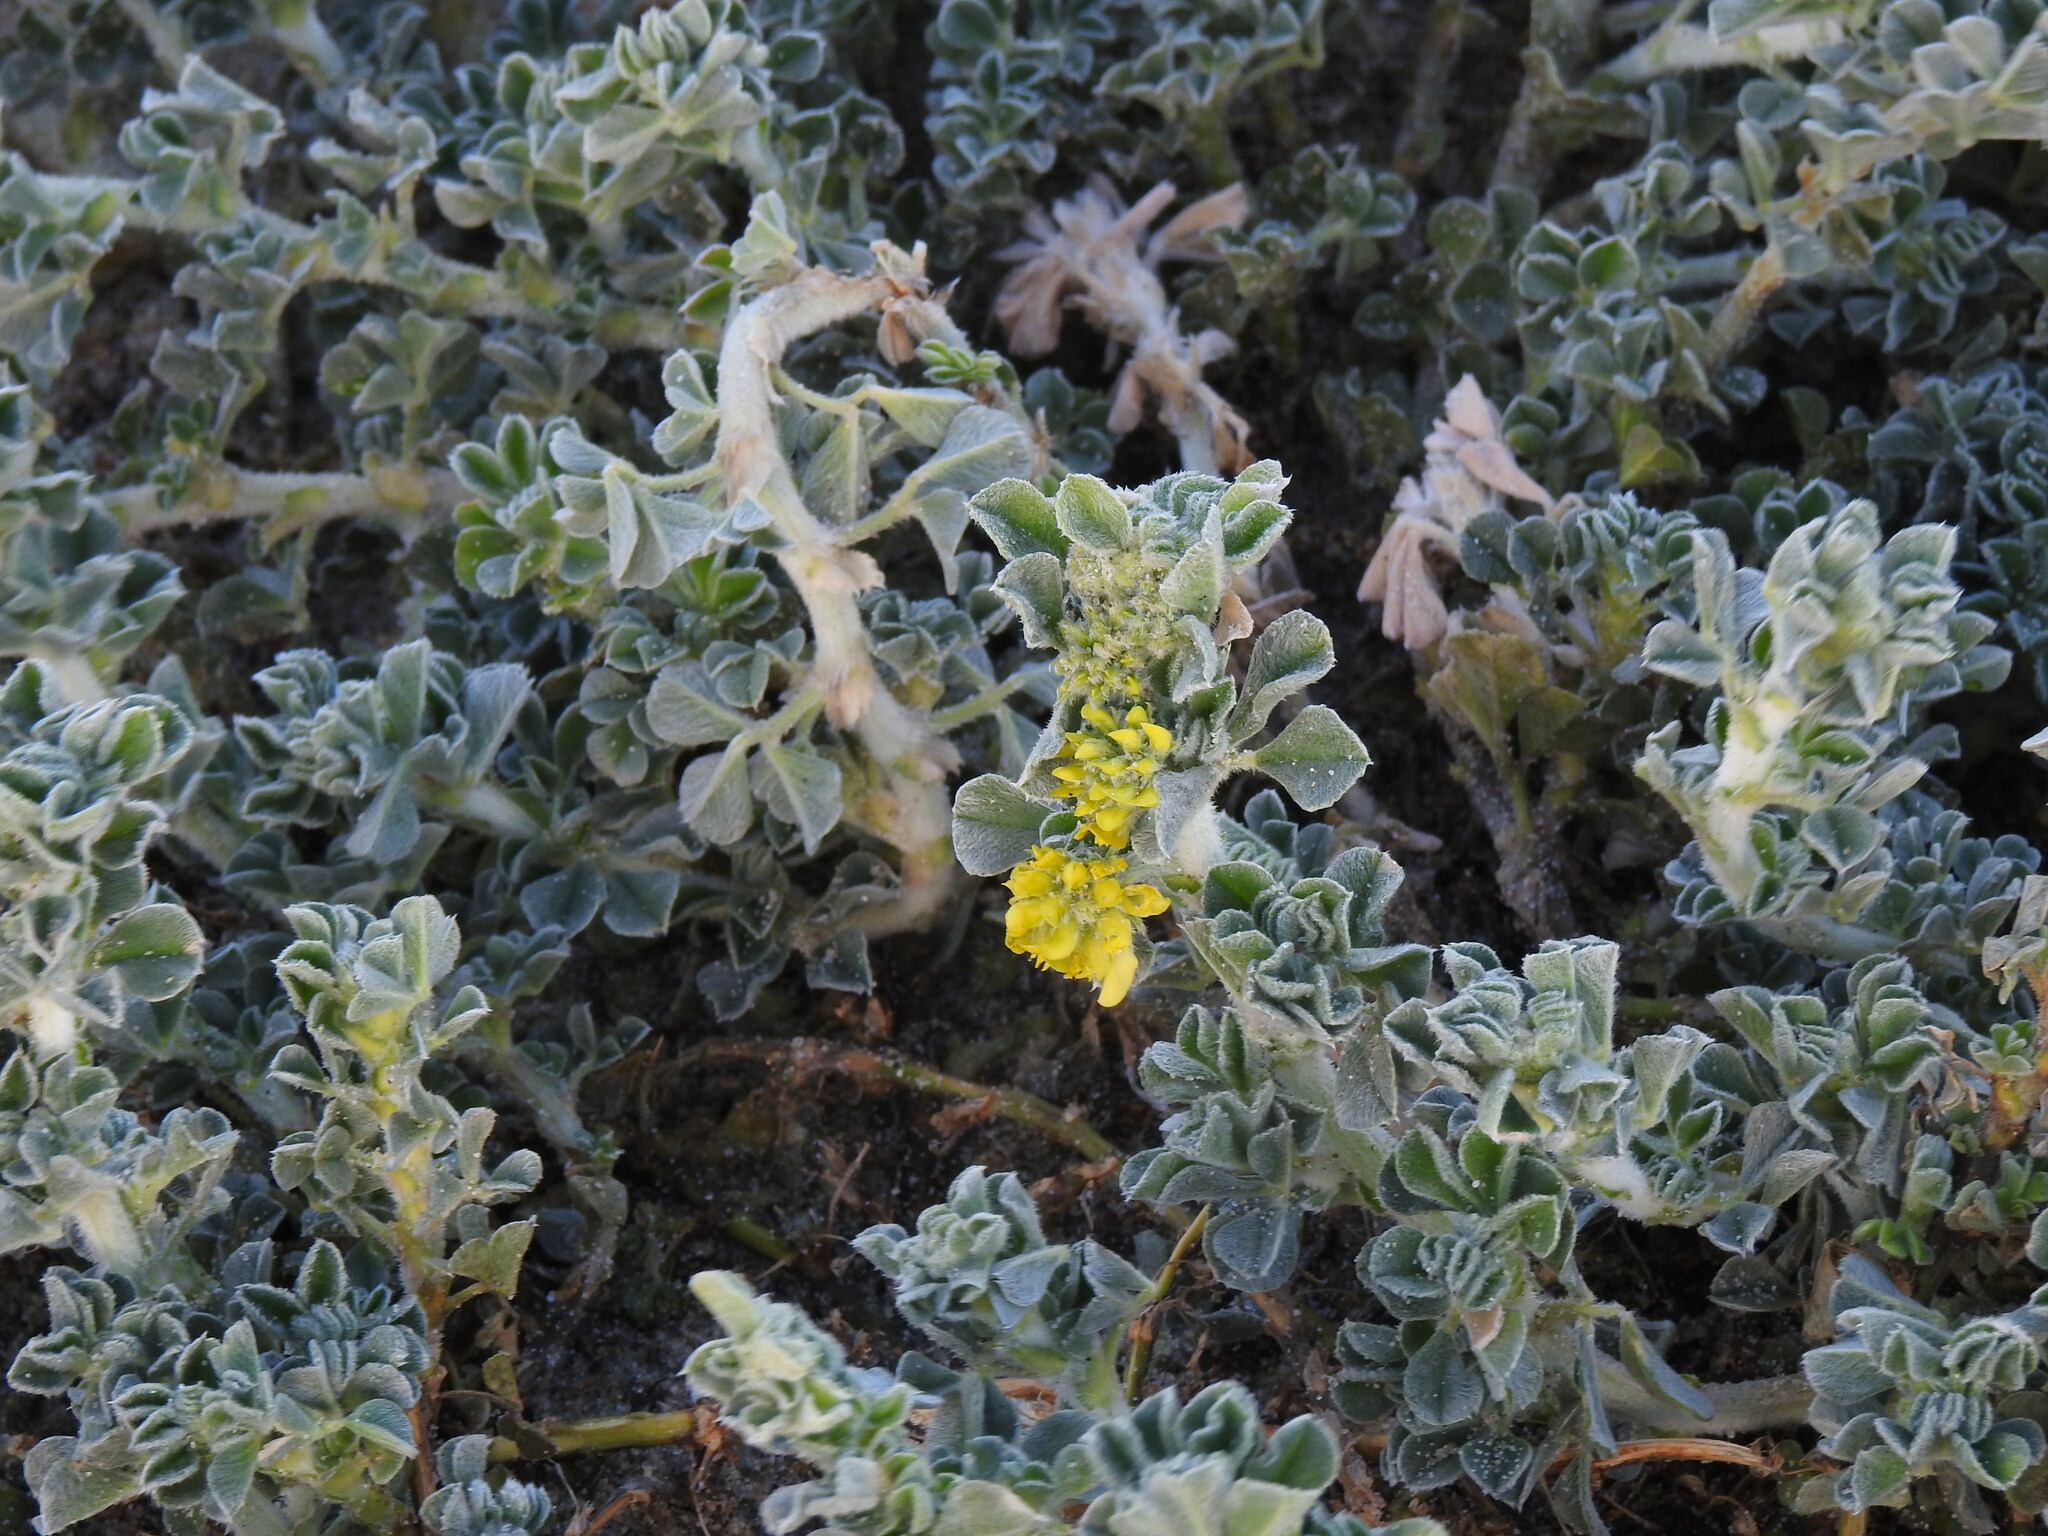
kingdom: Plantae
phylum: Tracheophyta
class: Magnoliopsida
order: Fabales
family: Fabaceae
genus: Medicago
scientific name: Medicago marina
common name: Sea medick
